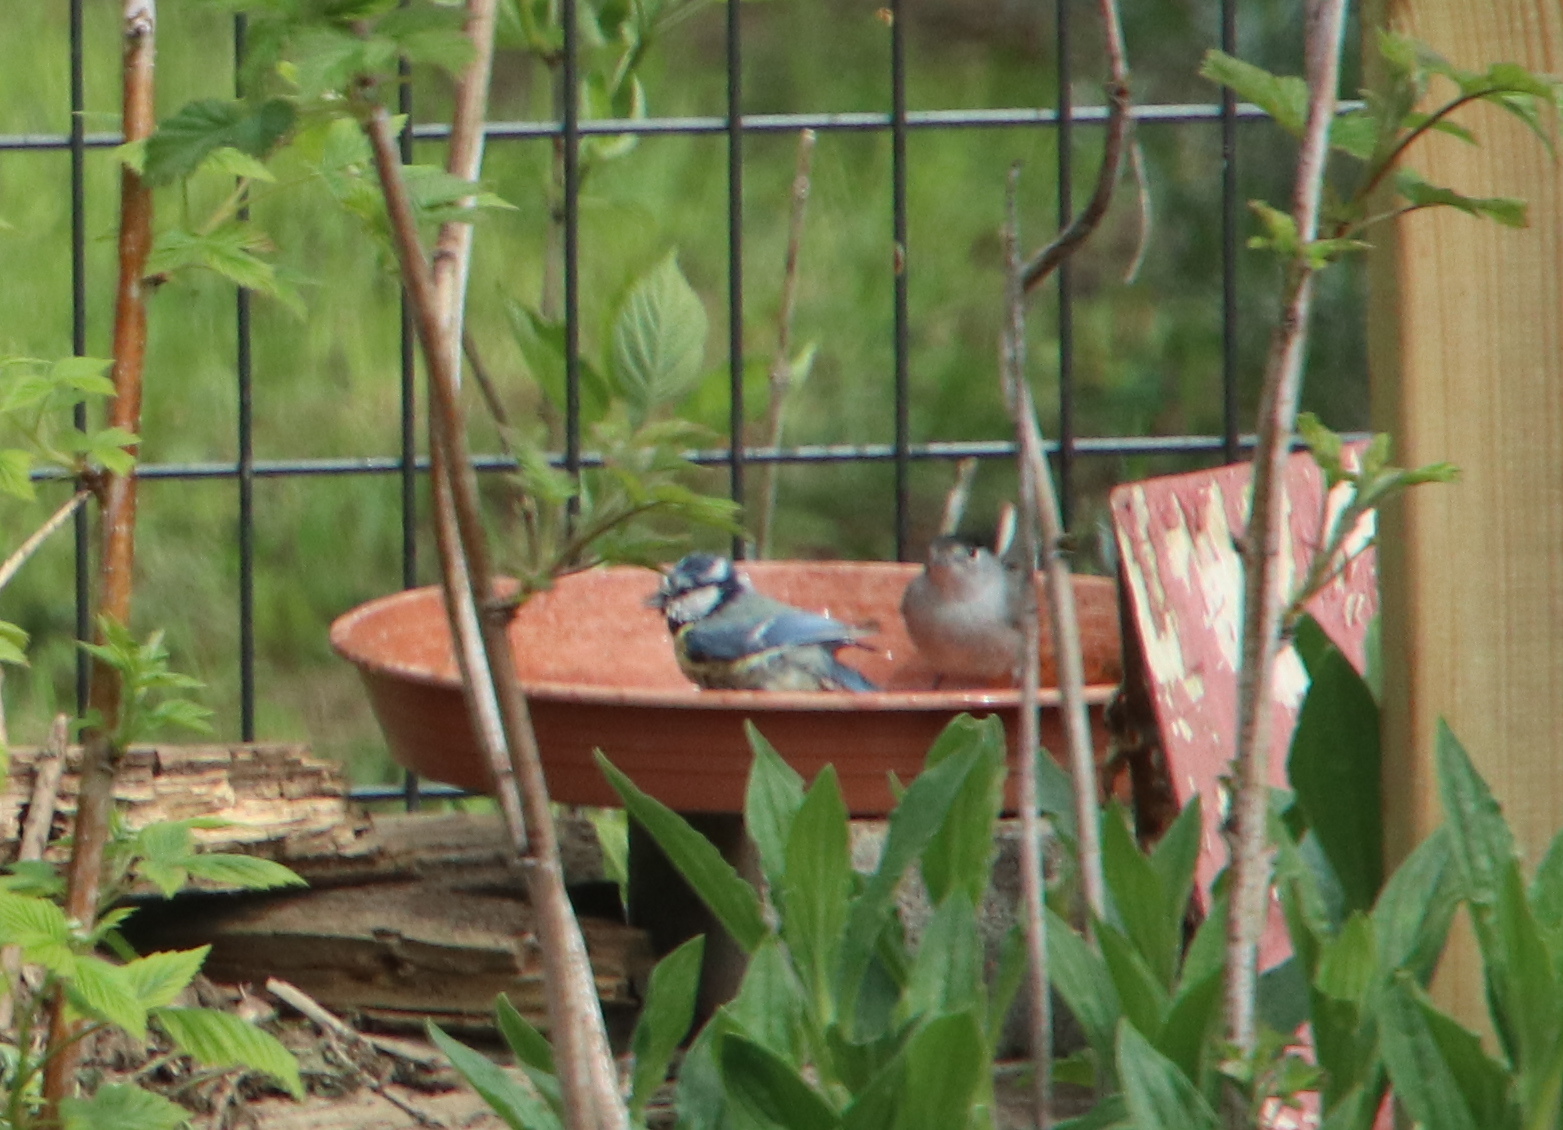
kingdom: Animalia
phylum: Chordata
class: Aves
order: Passeriformes
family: Paridae
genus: Cyanistes
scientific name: Cyanistes caeruleus
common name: Eurasian blue tit
